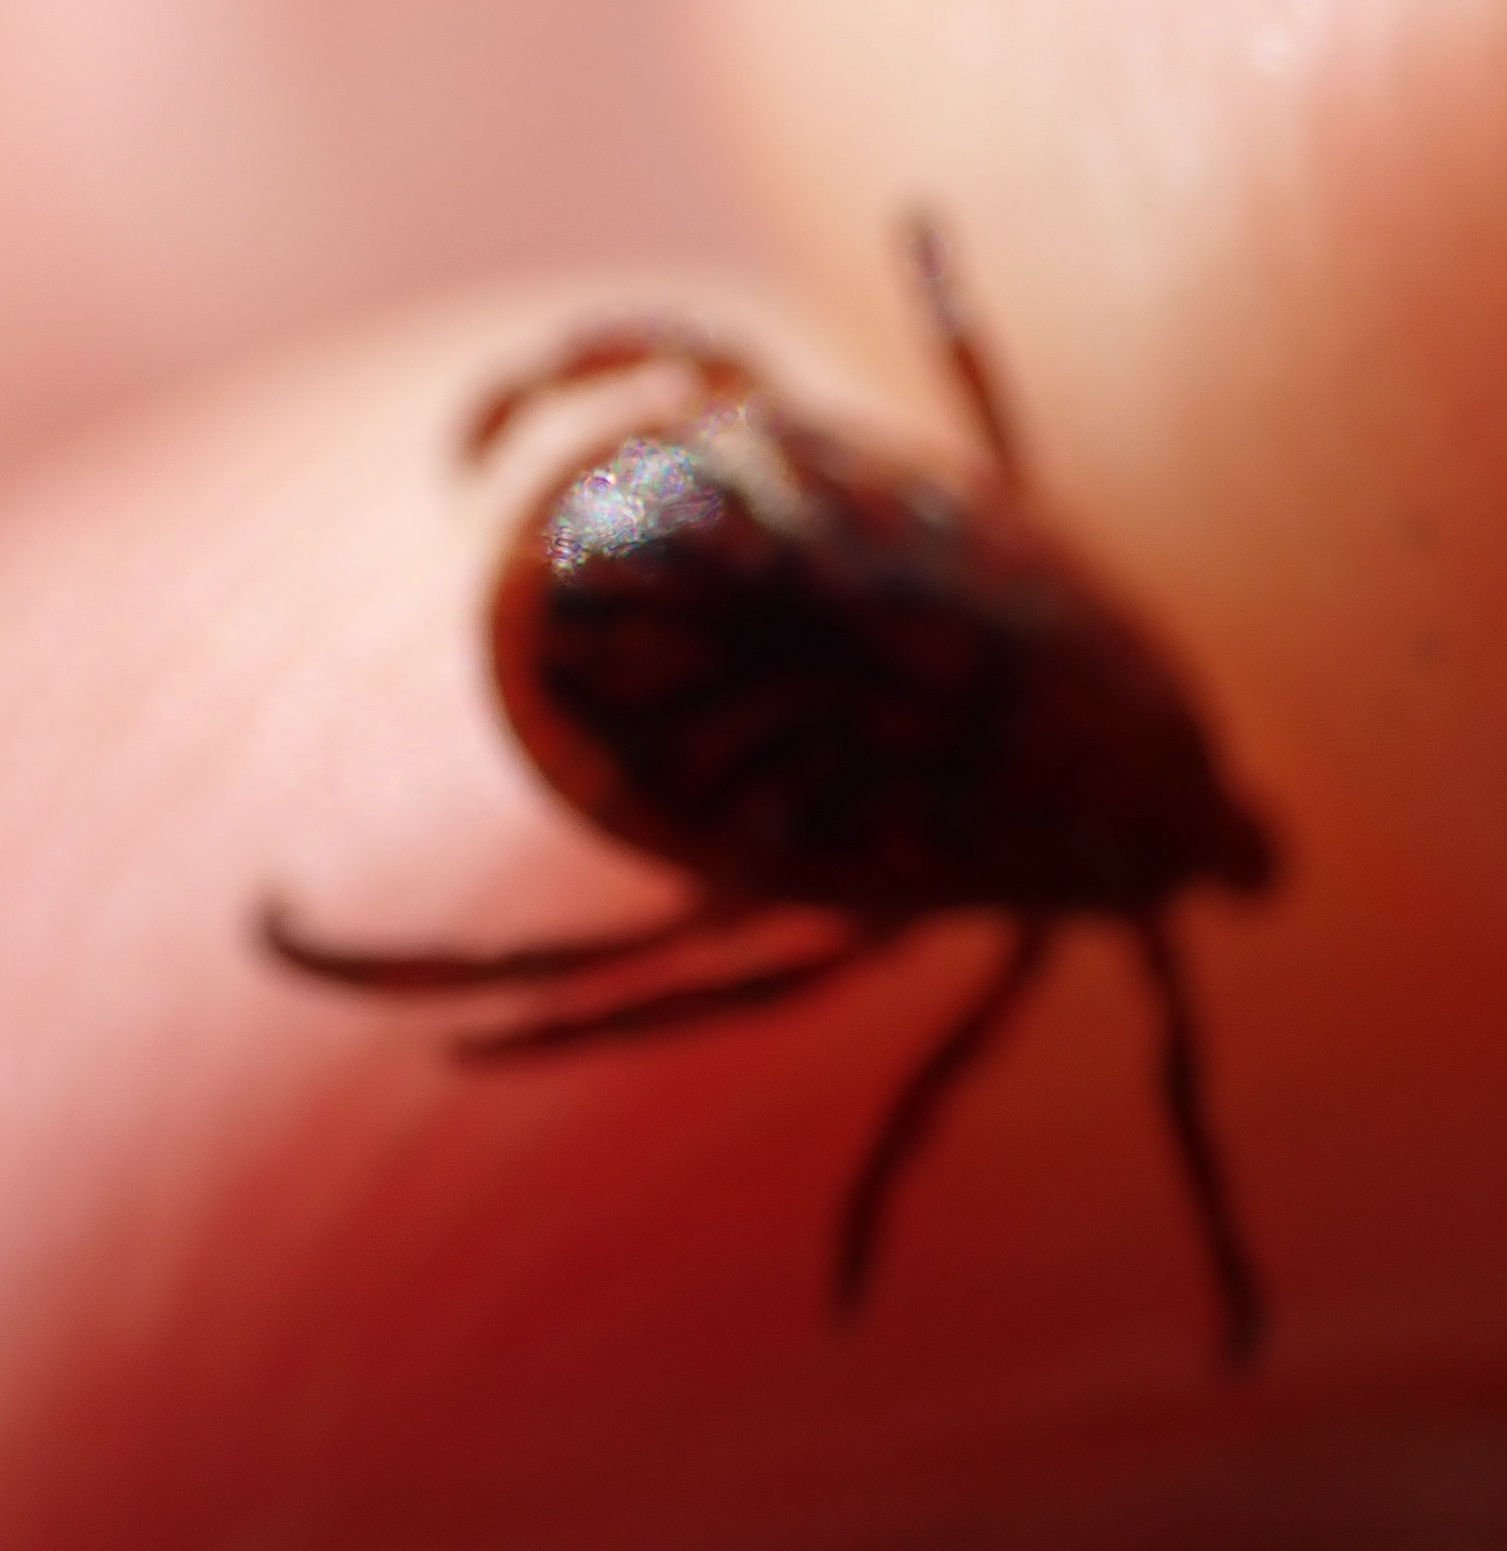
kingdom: Animalia
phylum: Arthropoda
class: Arachnida
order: Ixodida
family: Ixodidae
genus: Dermacentor
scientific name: Dermacentor variabilis
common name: American dog tick
